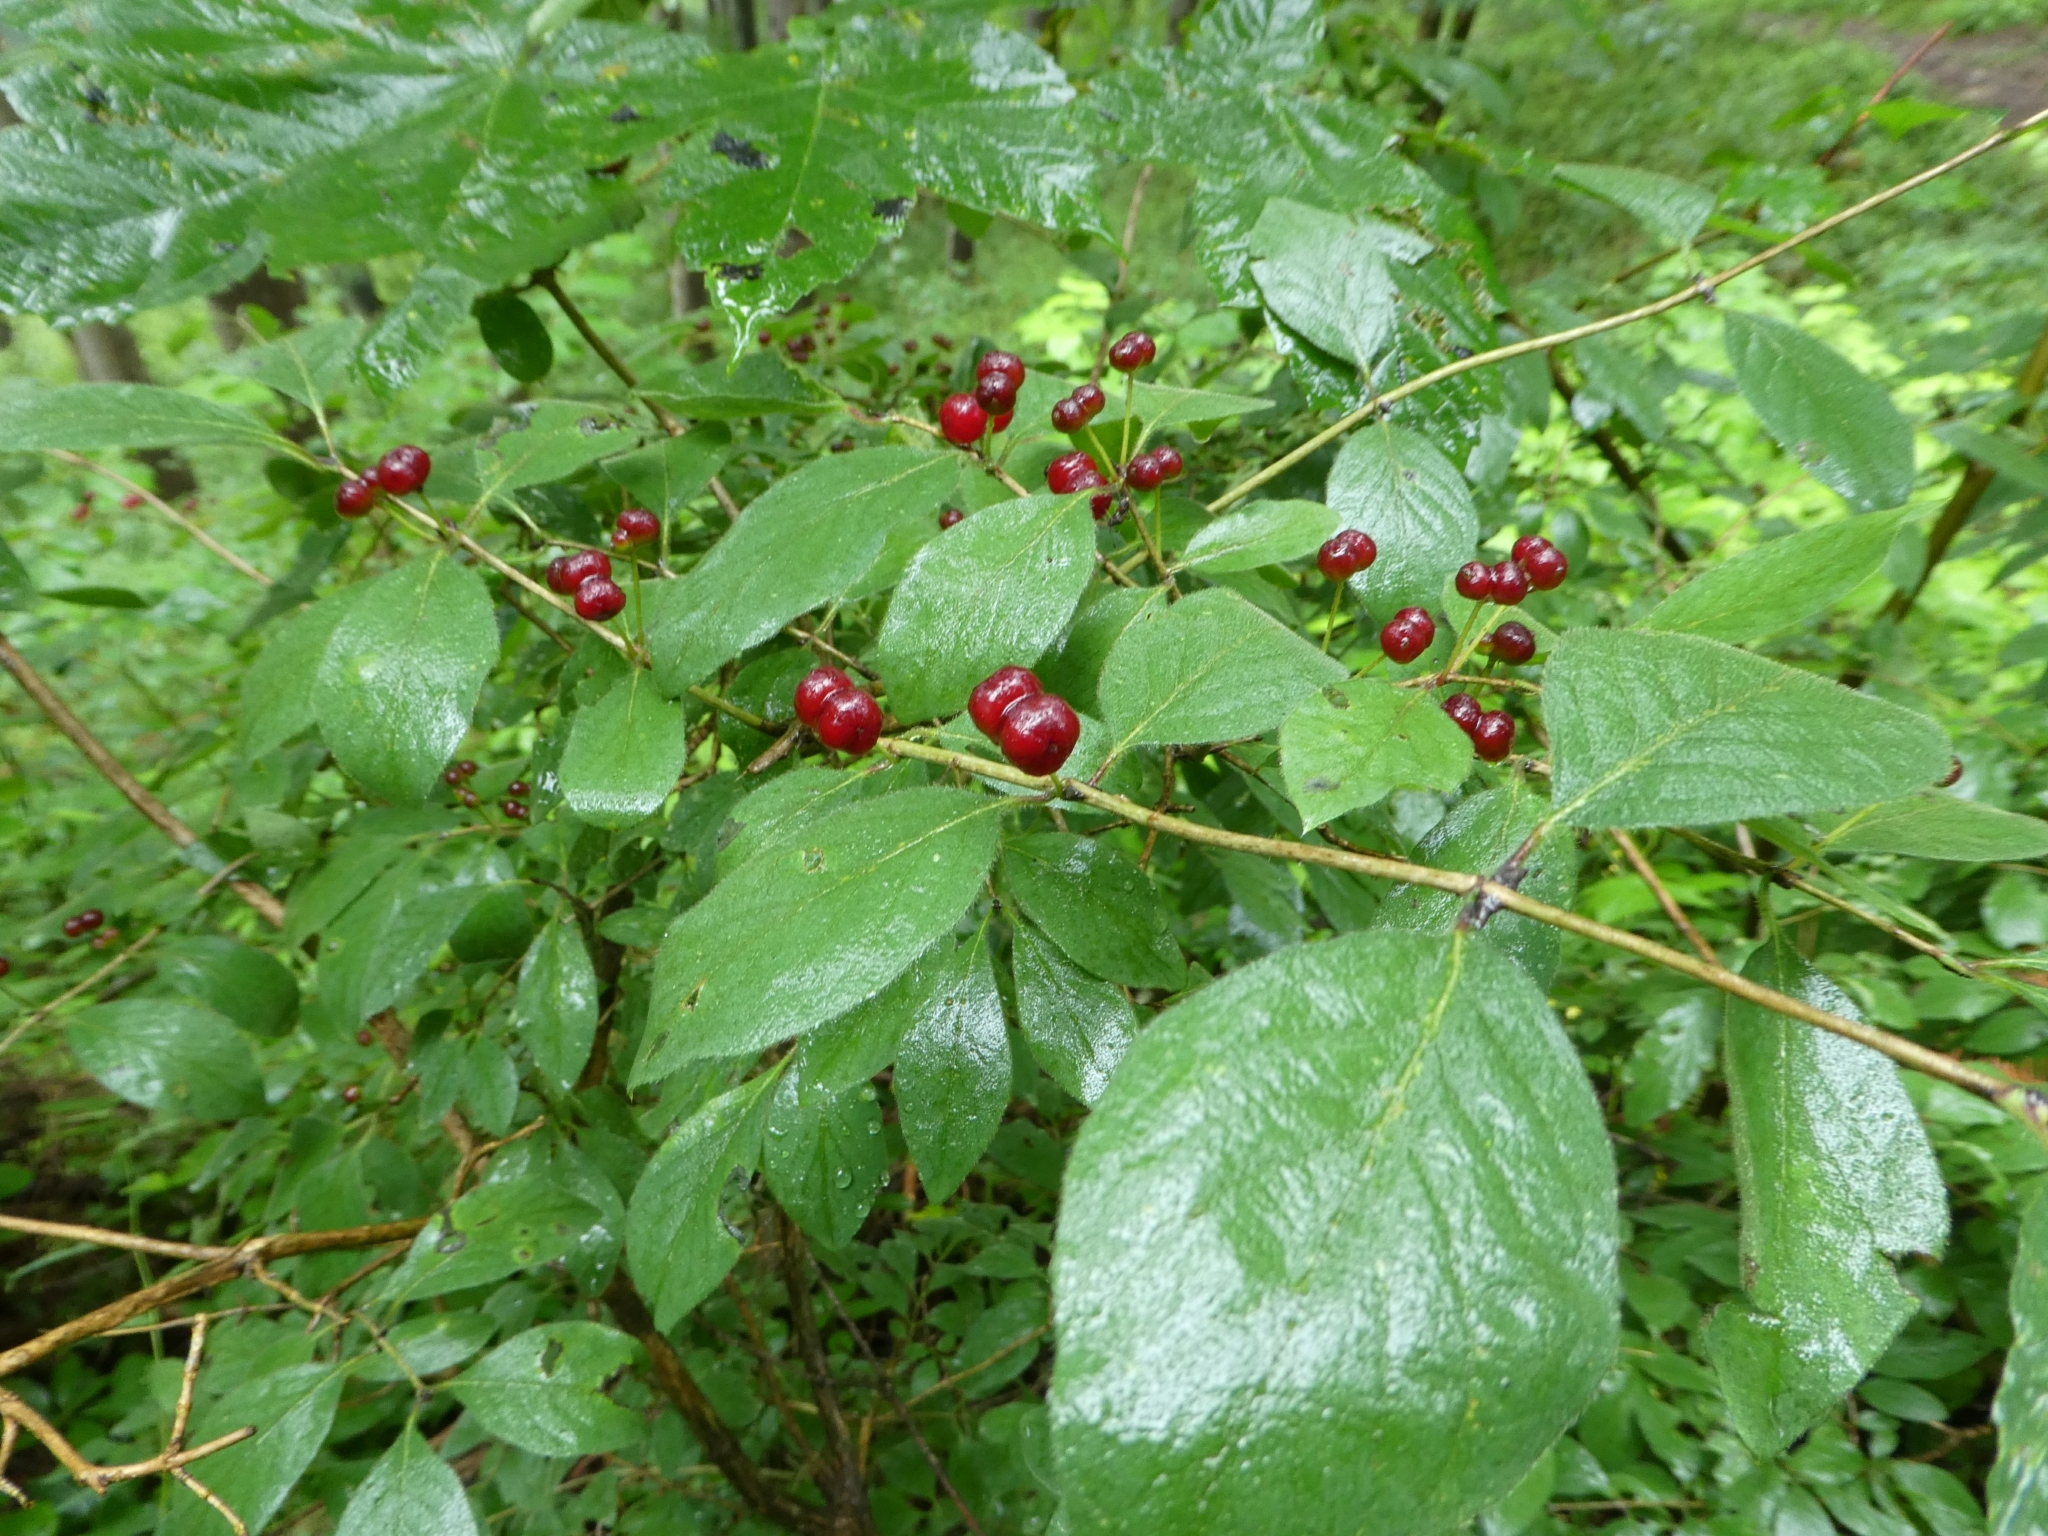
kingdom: Plantae
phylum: Tracheophyta
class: Magnoliopsida
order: Dipsacales
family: Caprifoliaceae
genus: Lonicera
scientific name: Lonicera xylosteum
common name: Fly honeysuckle
